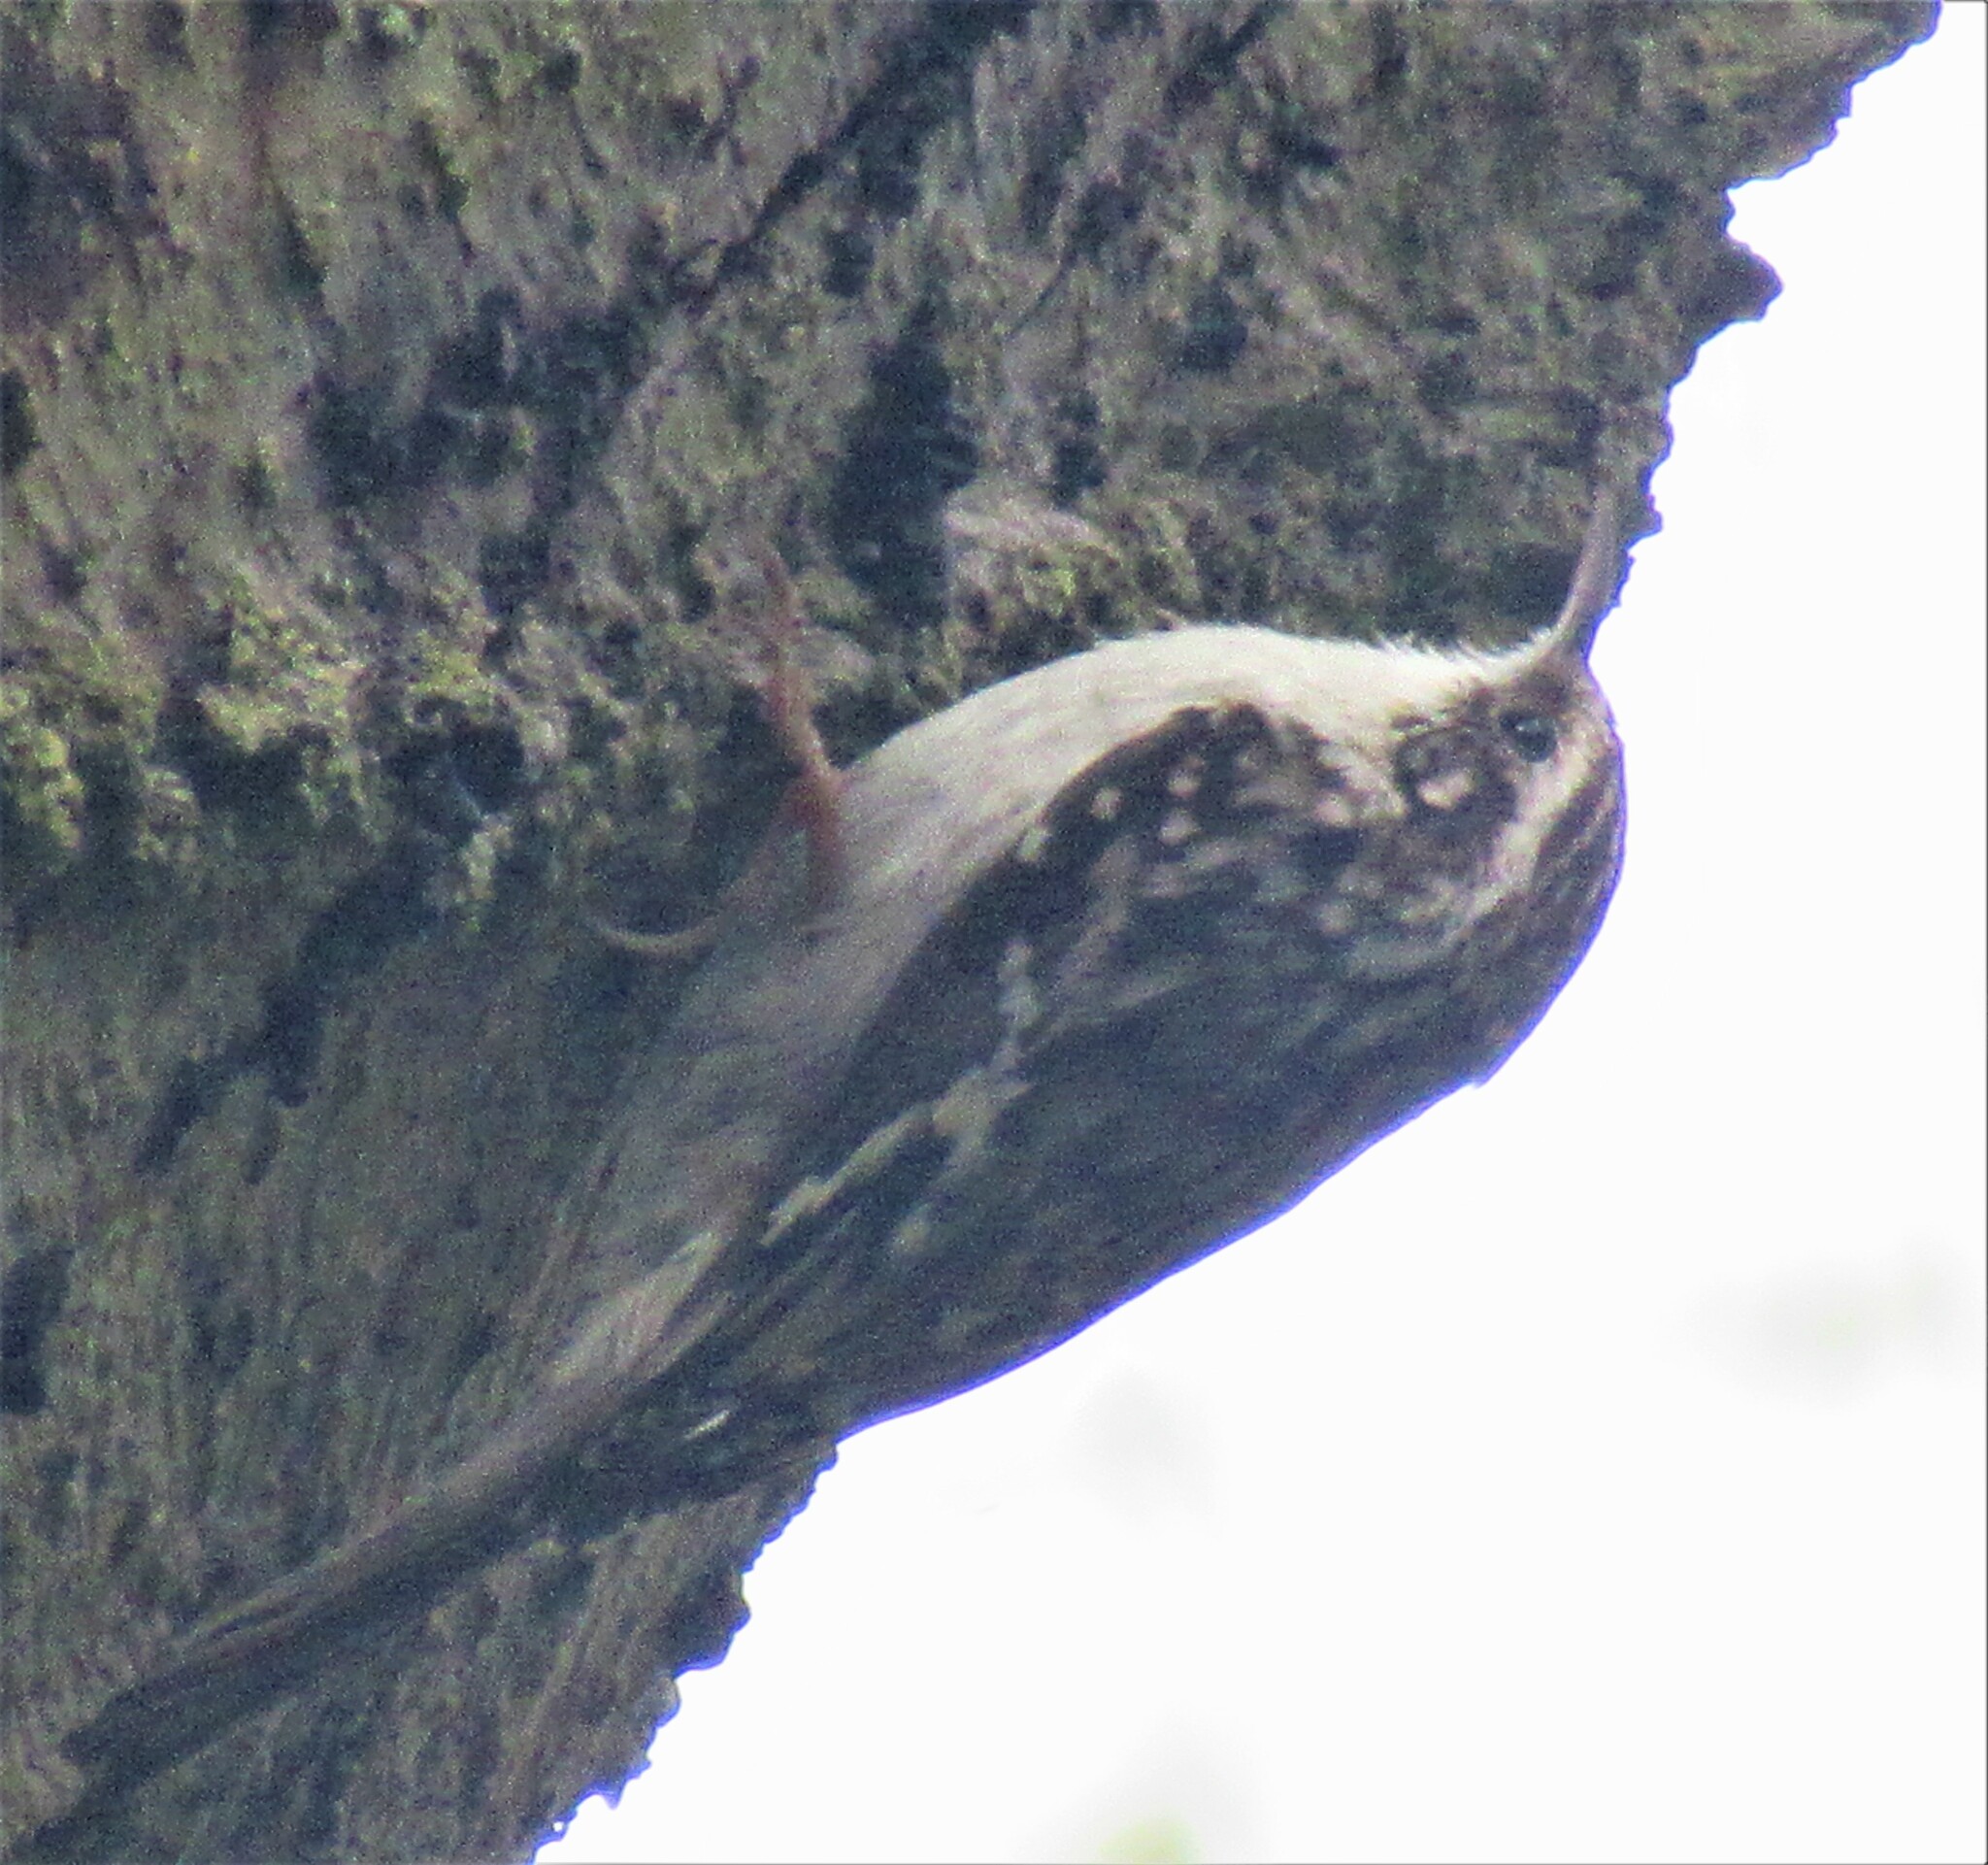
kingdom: Animalia
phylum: Chordata
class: Aves
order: Passeriformes
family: Certhiidae
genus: Certhia
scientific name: Certhia americana
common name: Brown creeper
